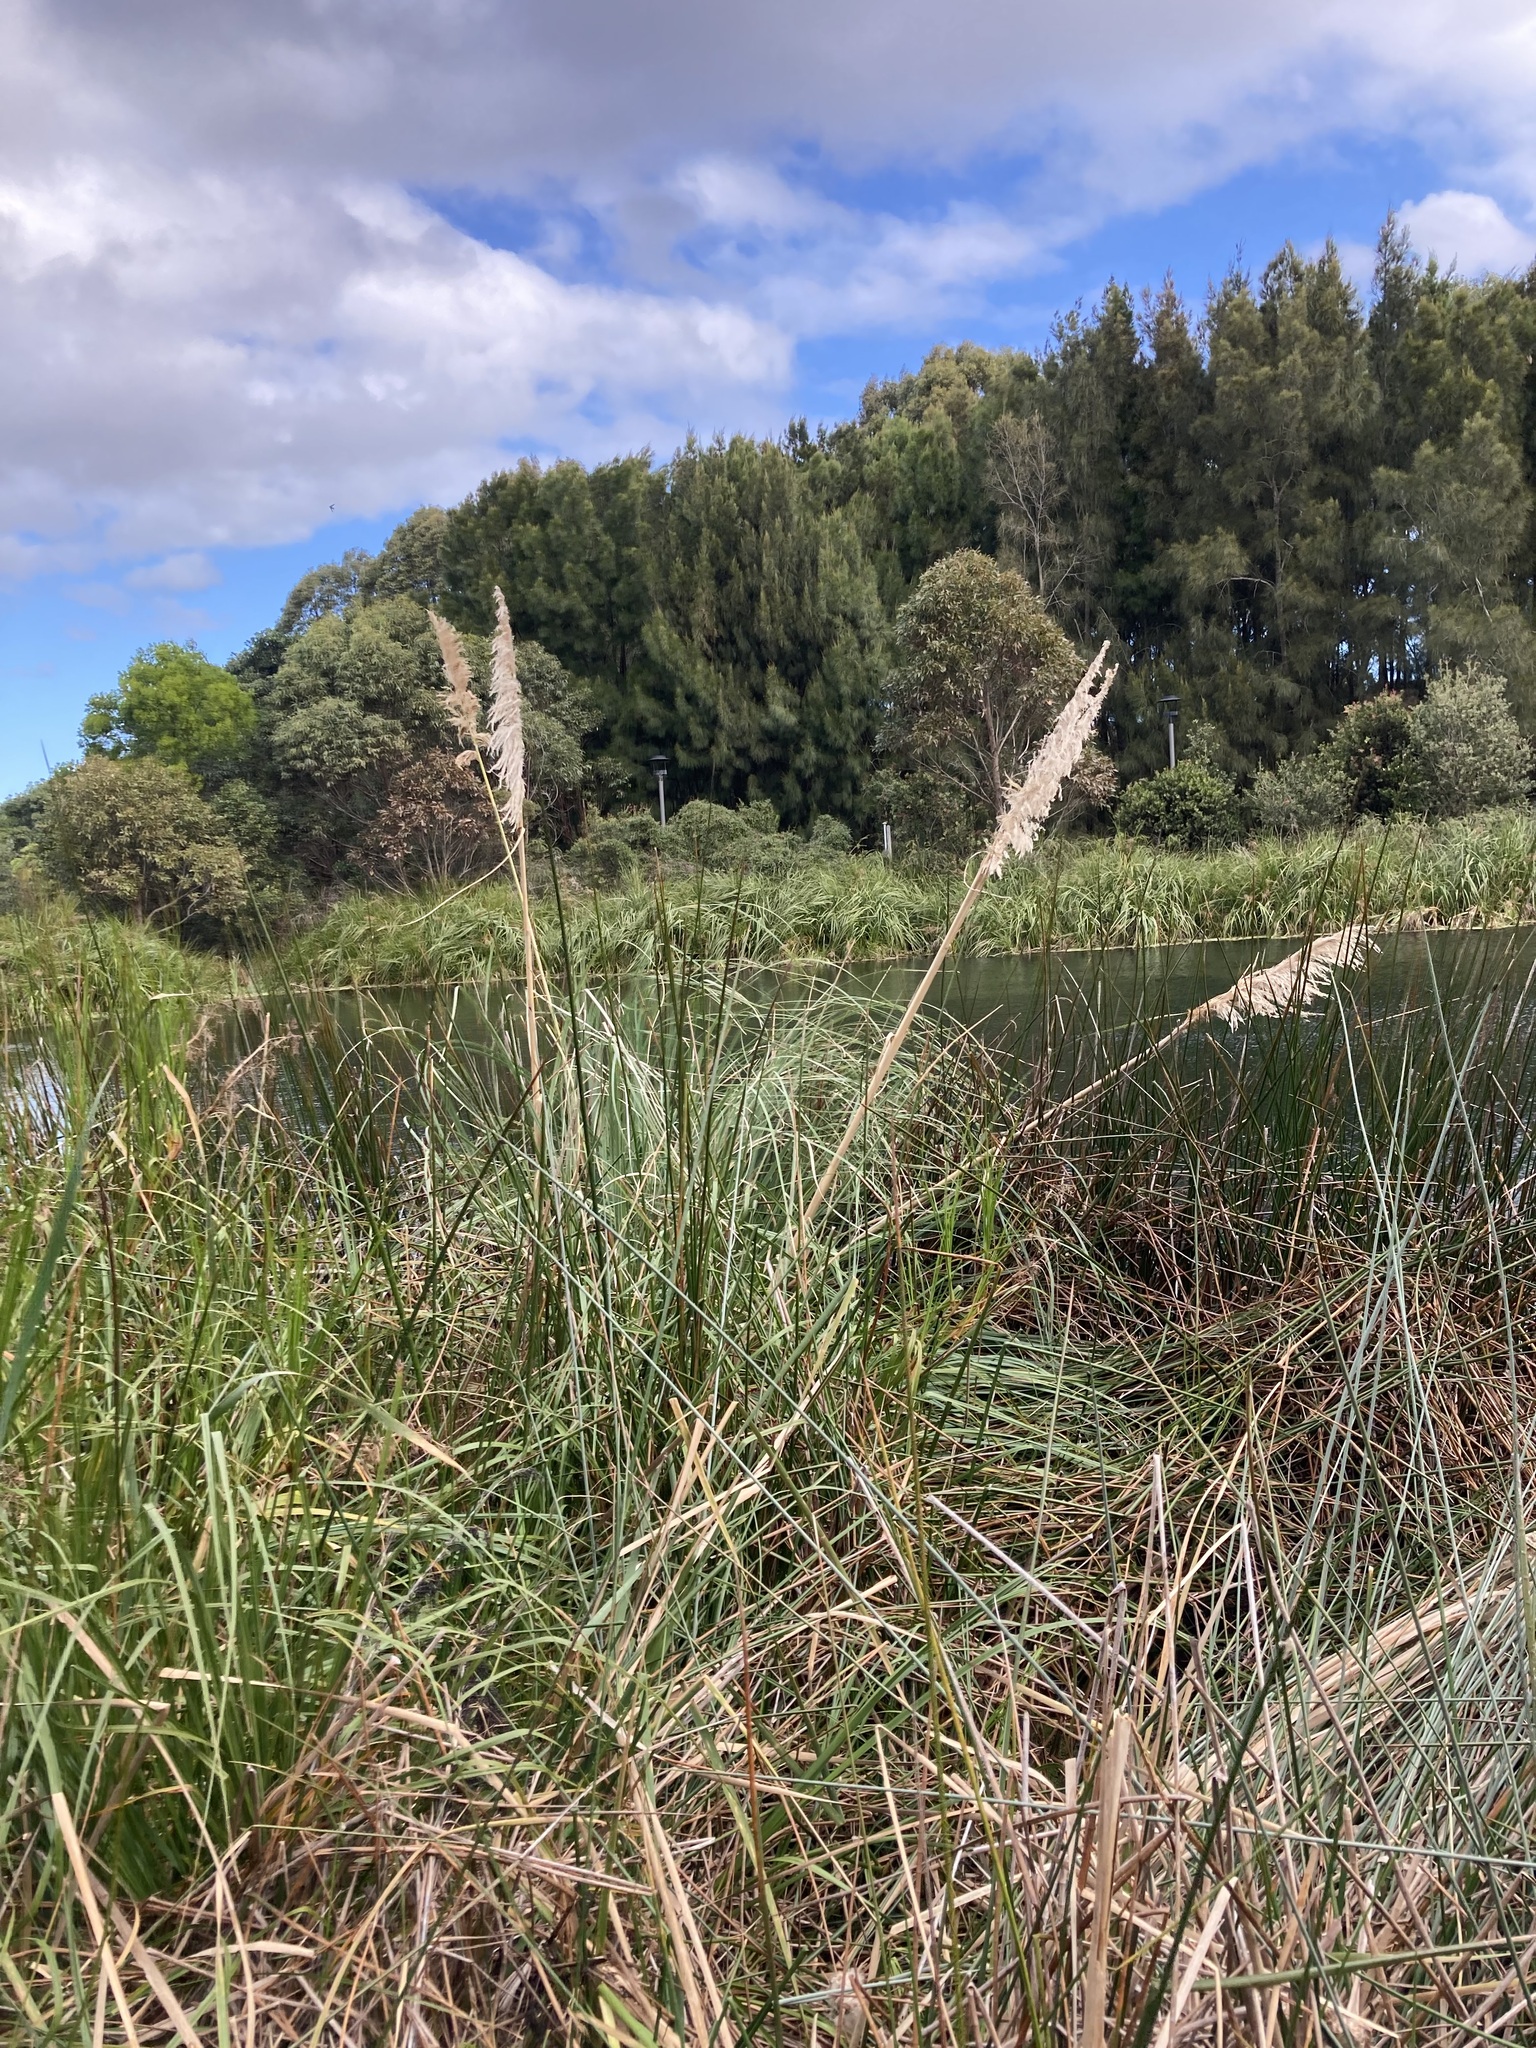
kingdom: Plantae
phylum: Tracheophyta
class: Liliopsida
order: Poales
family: Poaceae
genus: Cortaderia
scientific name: Cortaderia selloana
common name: Uruguayan pampas grass
